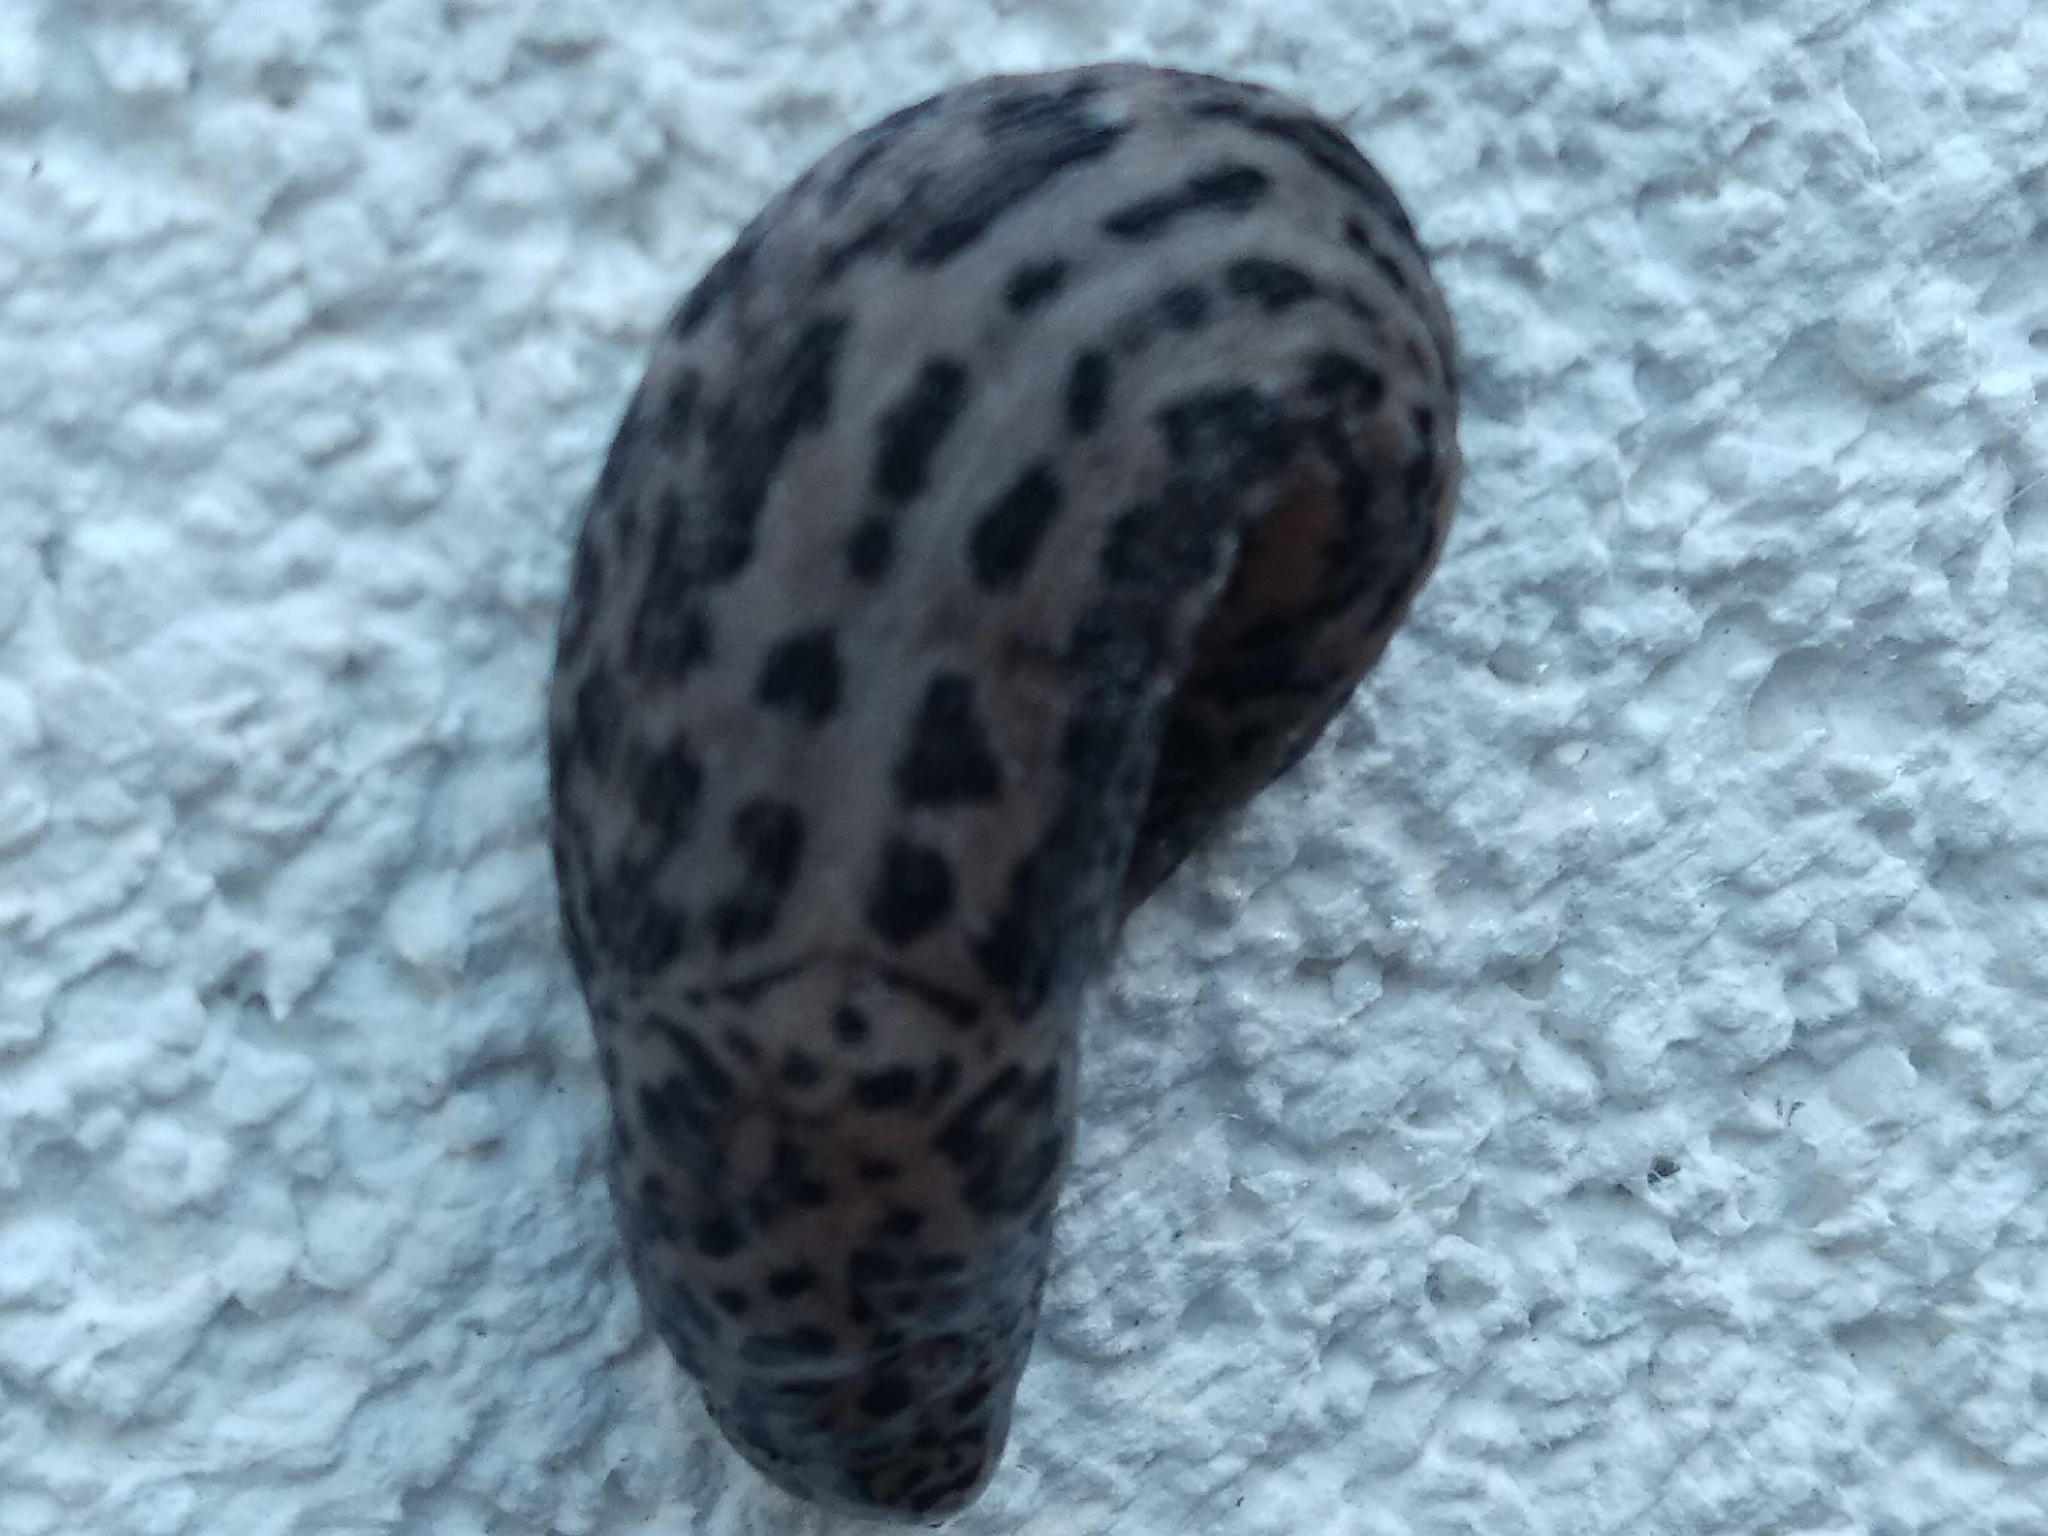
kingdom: Animalia
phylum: Mollusca
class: Gastropoda
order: Stylommatophora
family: Limacidae
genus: Limax
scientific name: Limax maximus
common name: Great grey slug
